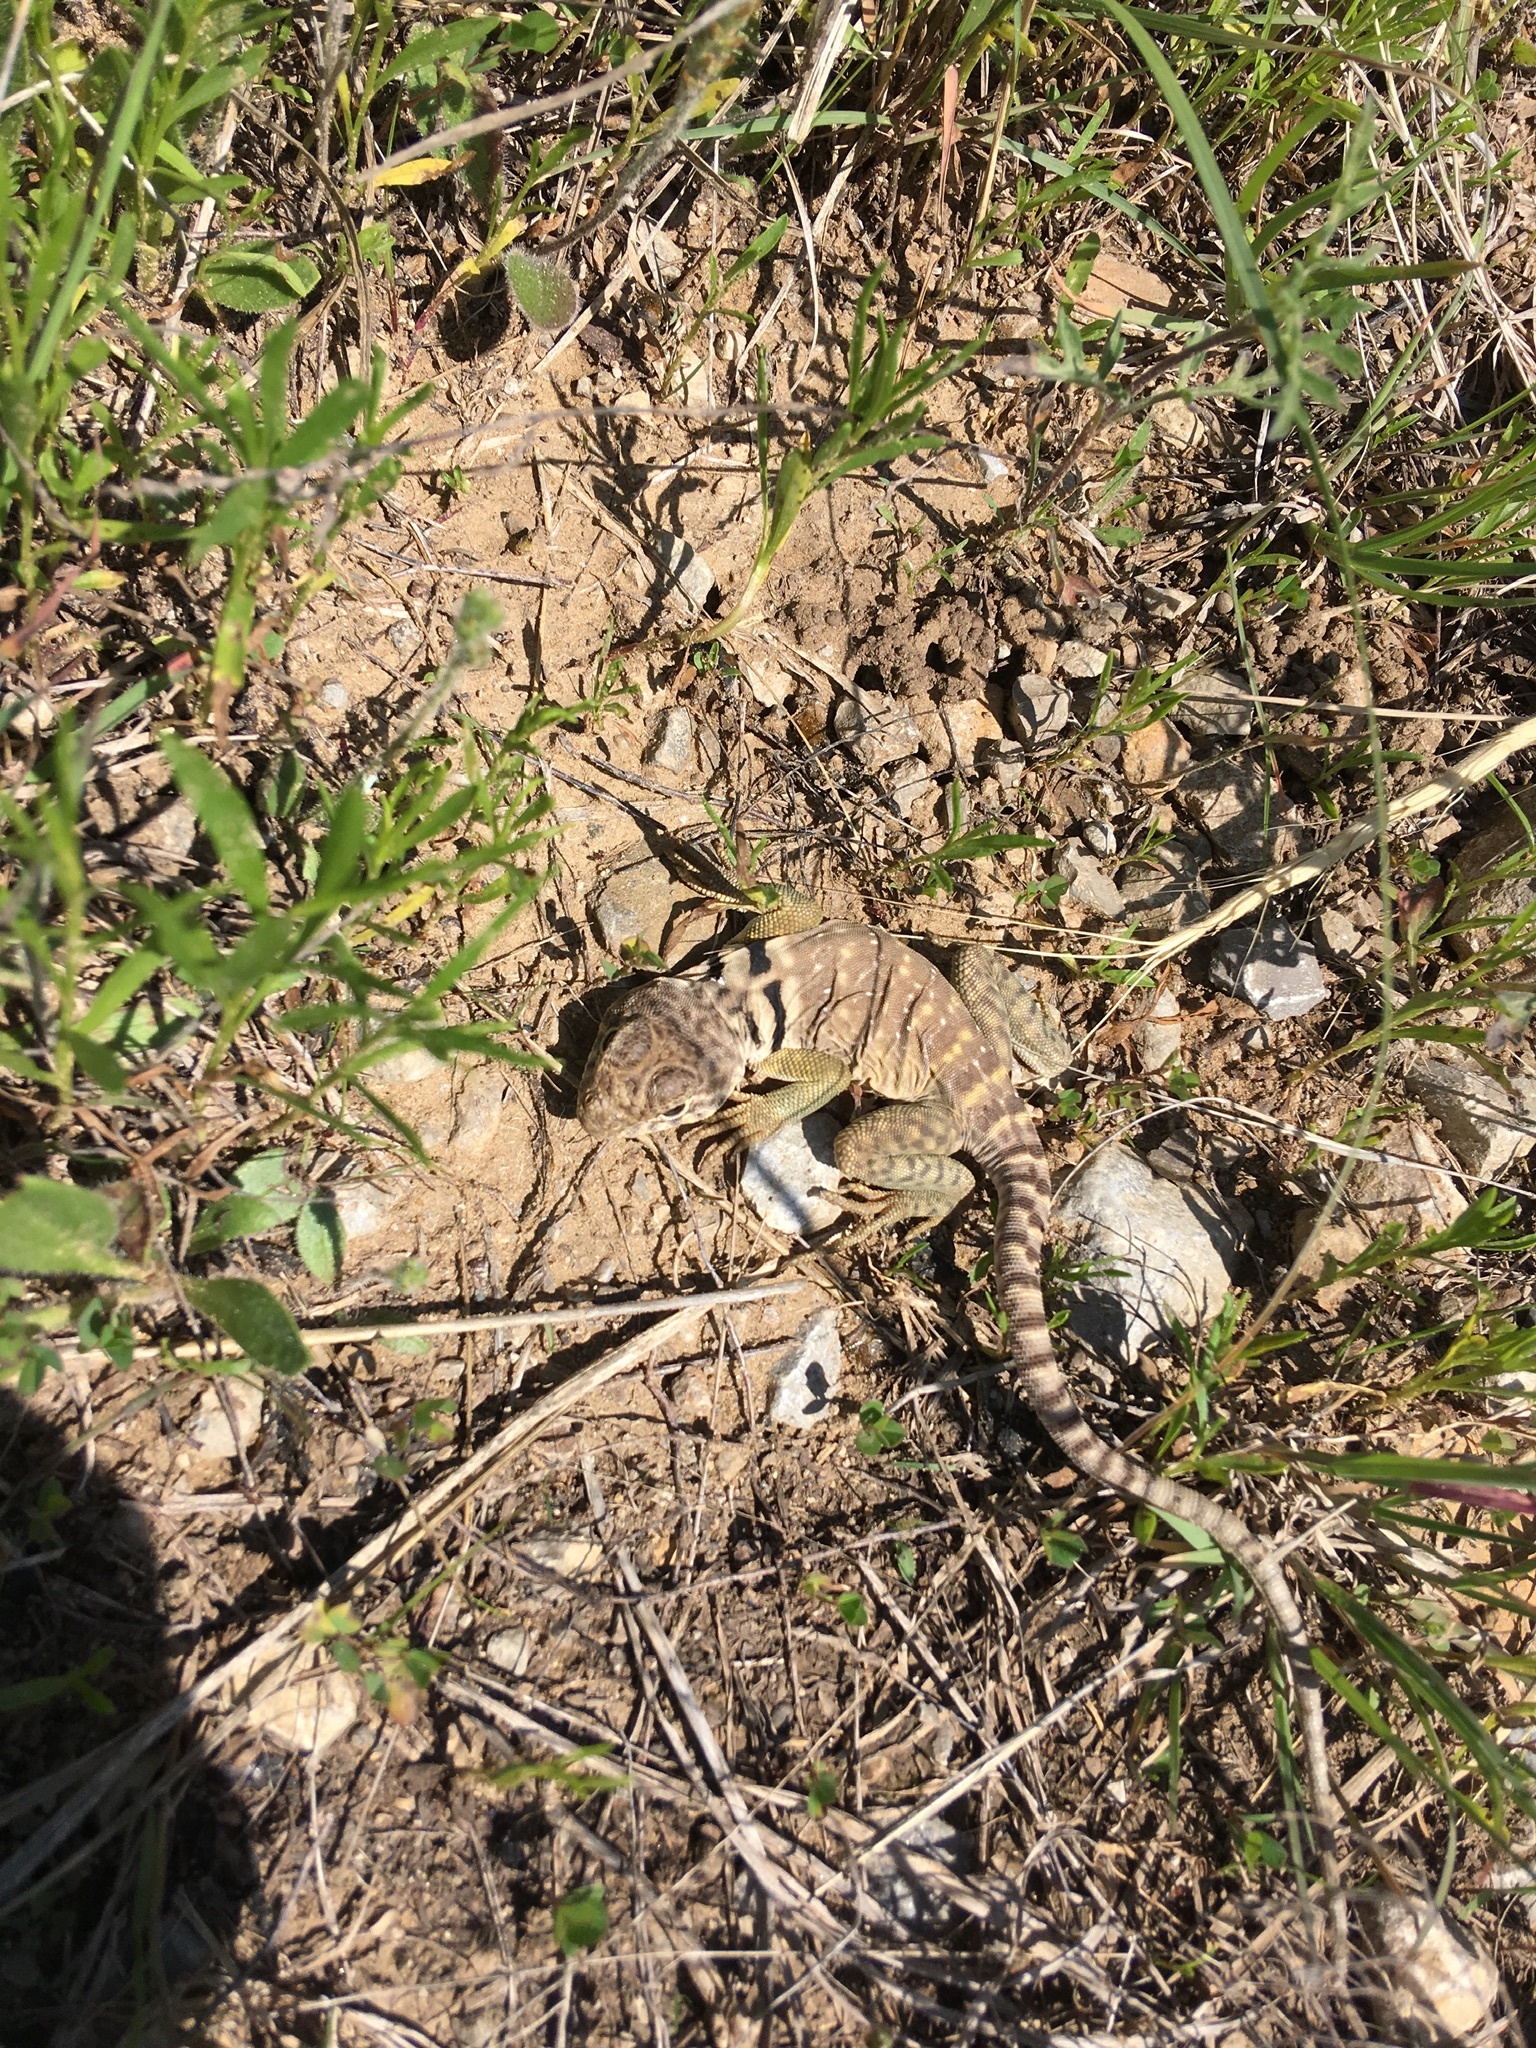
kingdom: Animalia
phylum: Chordata
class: Squamata
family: Crotaphytidae
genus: Crotaphytus
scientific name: Crotaphytus collaris
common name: Collared lizard
